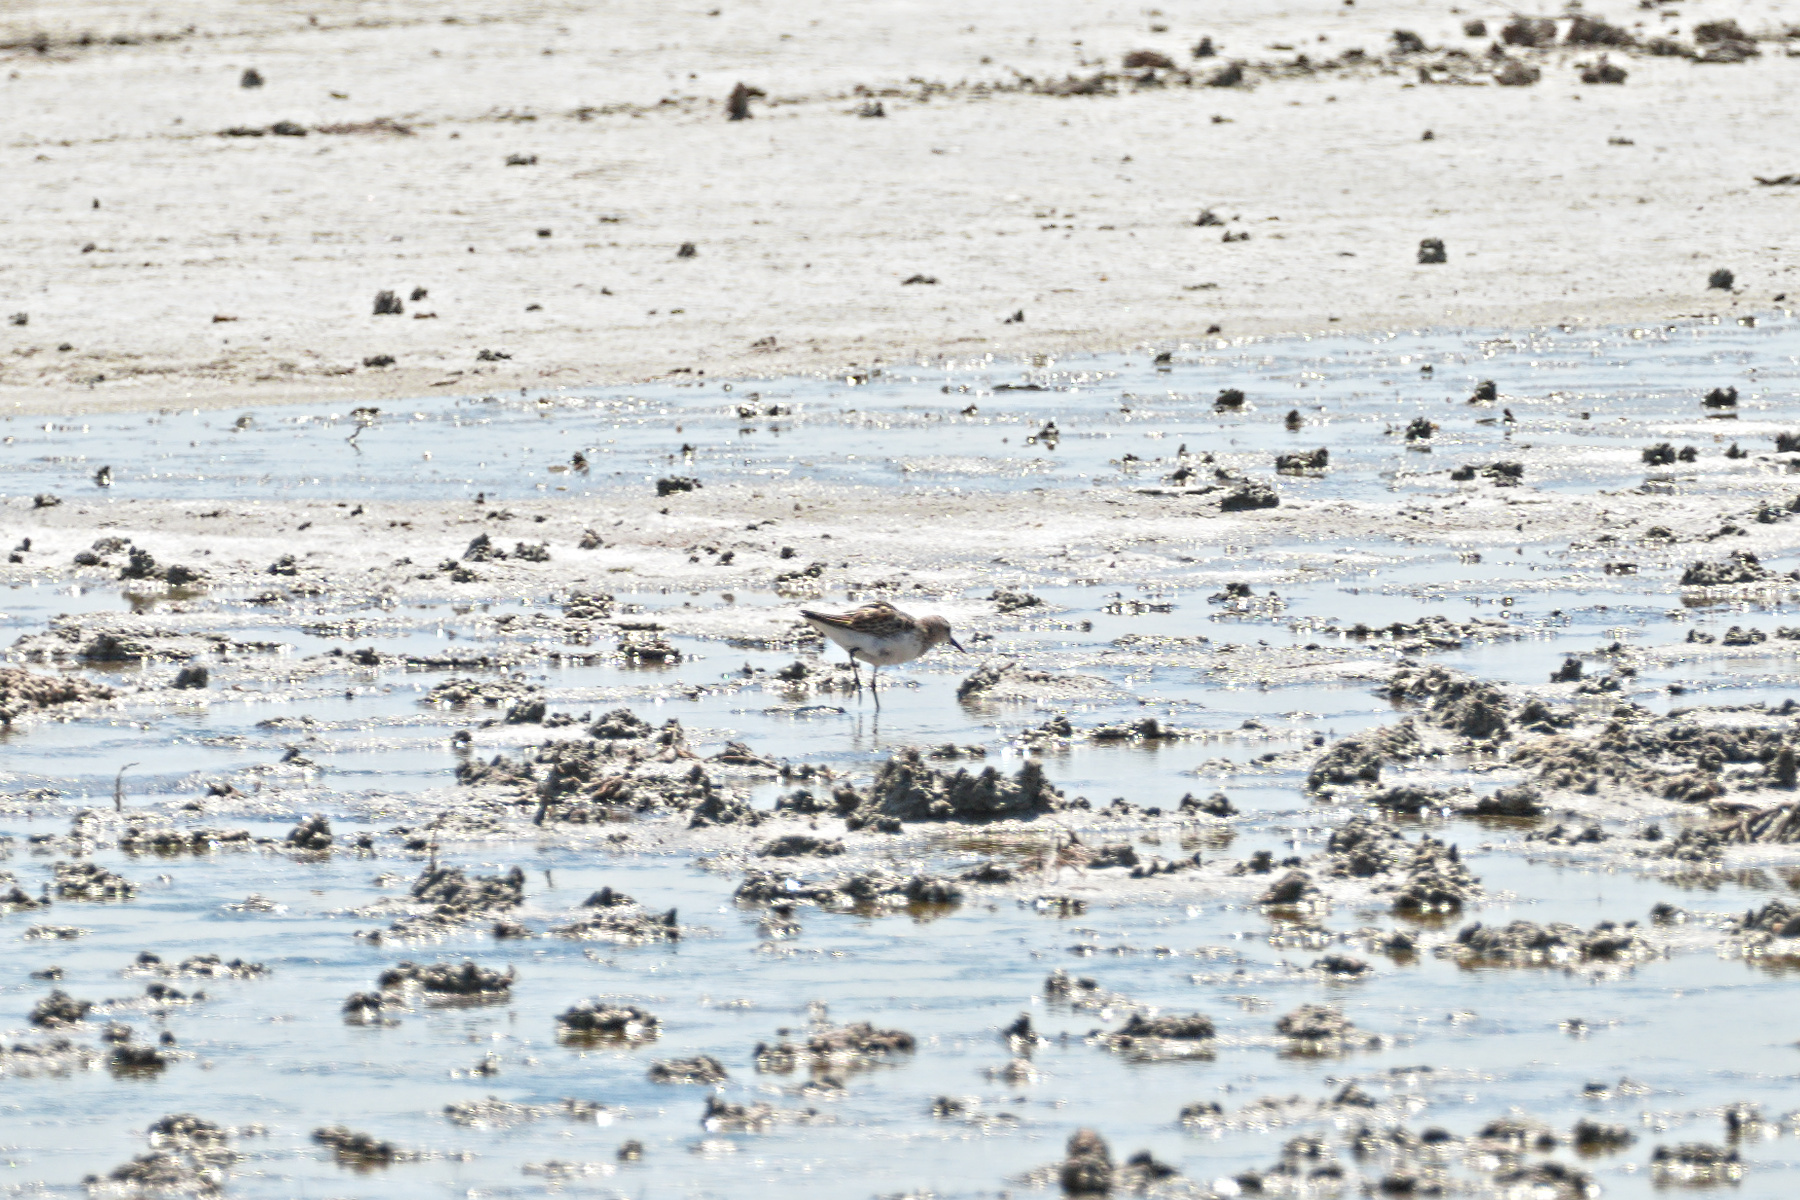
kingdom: Animalia
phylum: Chordata
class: Aves
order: Charadriiformes
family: Scolopacidae
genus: Calidris
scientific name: Calidris minuta
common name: Little stint
